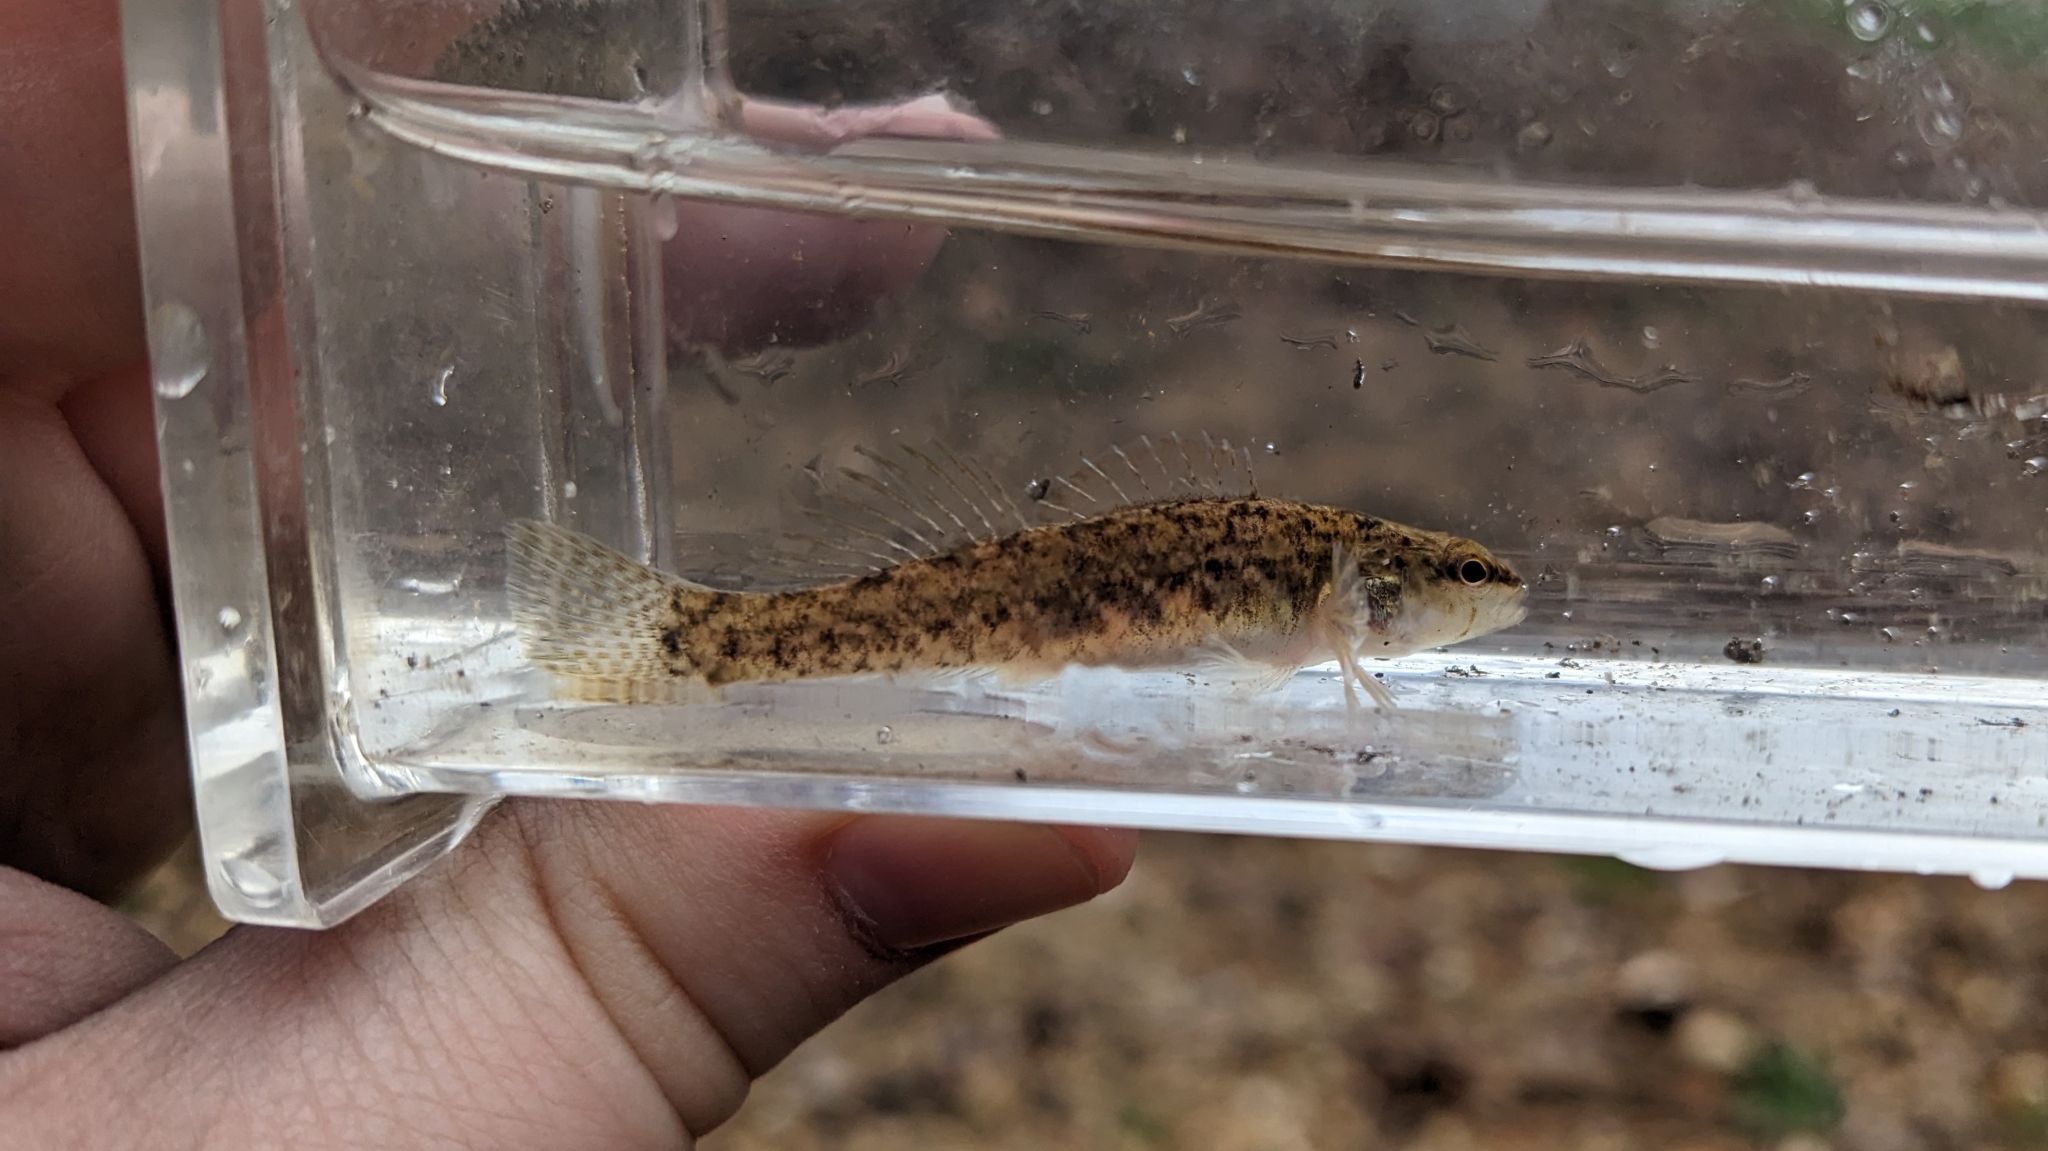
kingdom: Animalia
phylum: Chordata
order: Perciformes
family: Percidae
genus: Etheostoma
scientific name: Etheostoma oophylax
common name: Guardian darter
